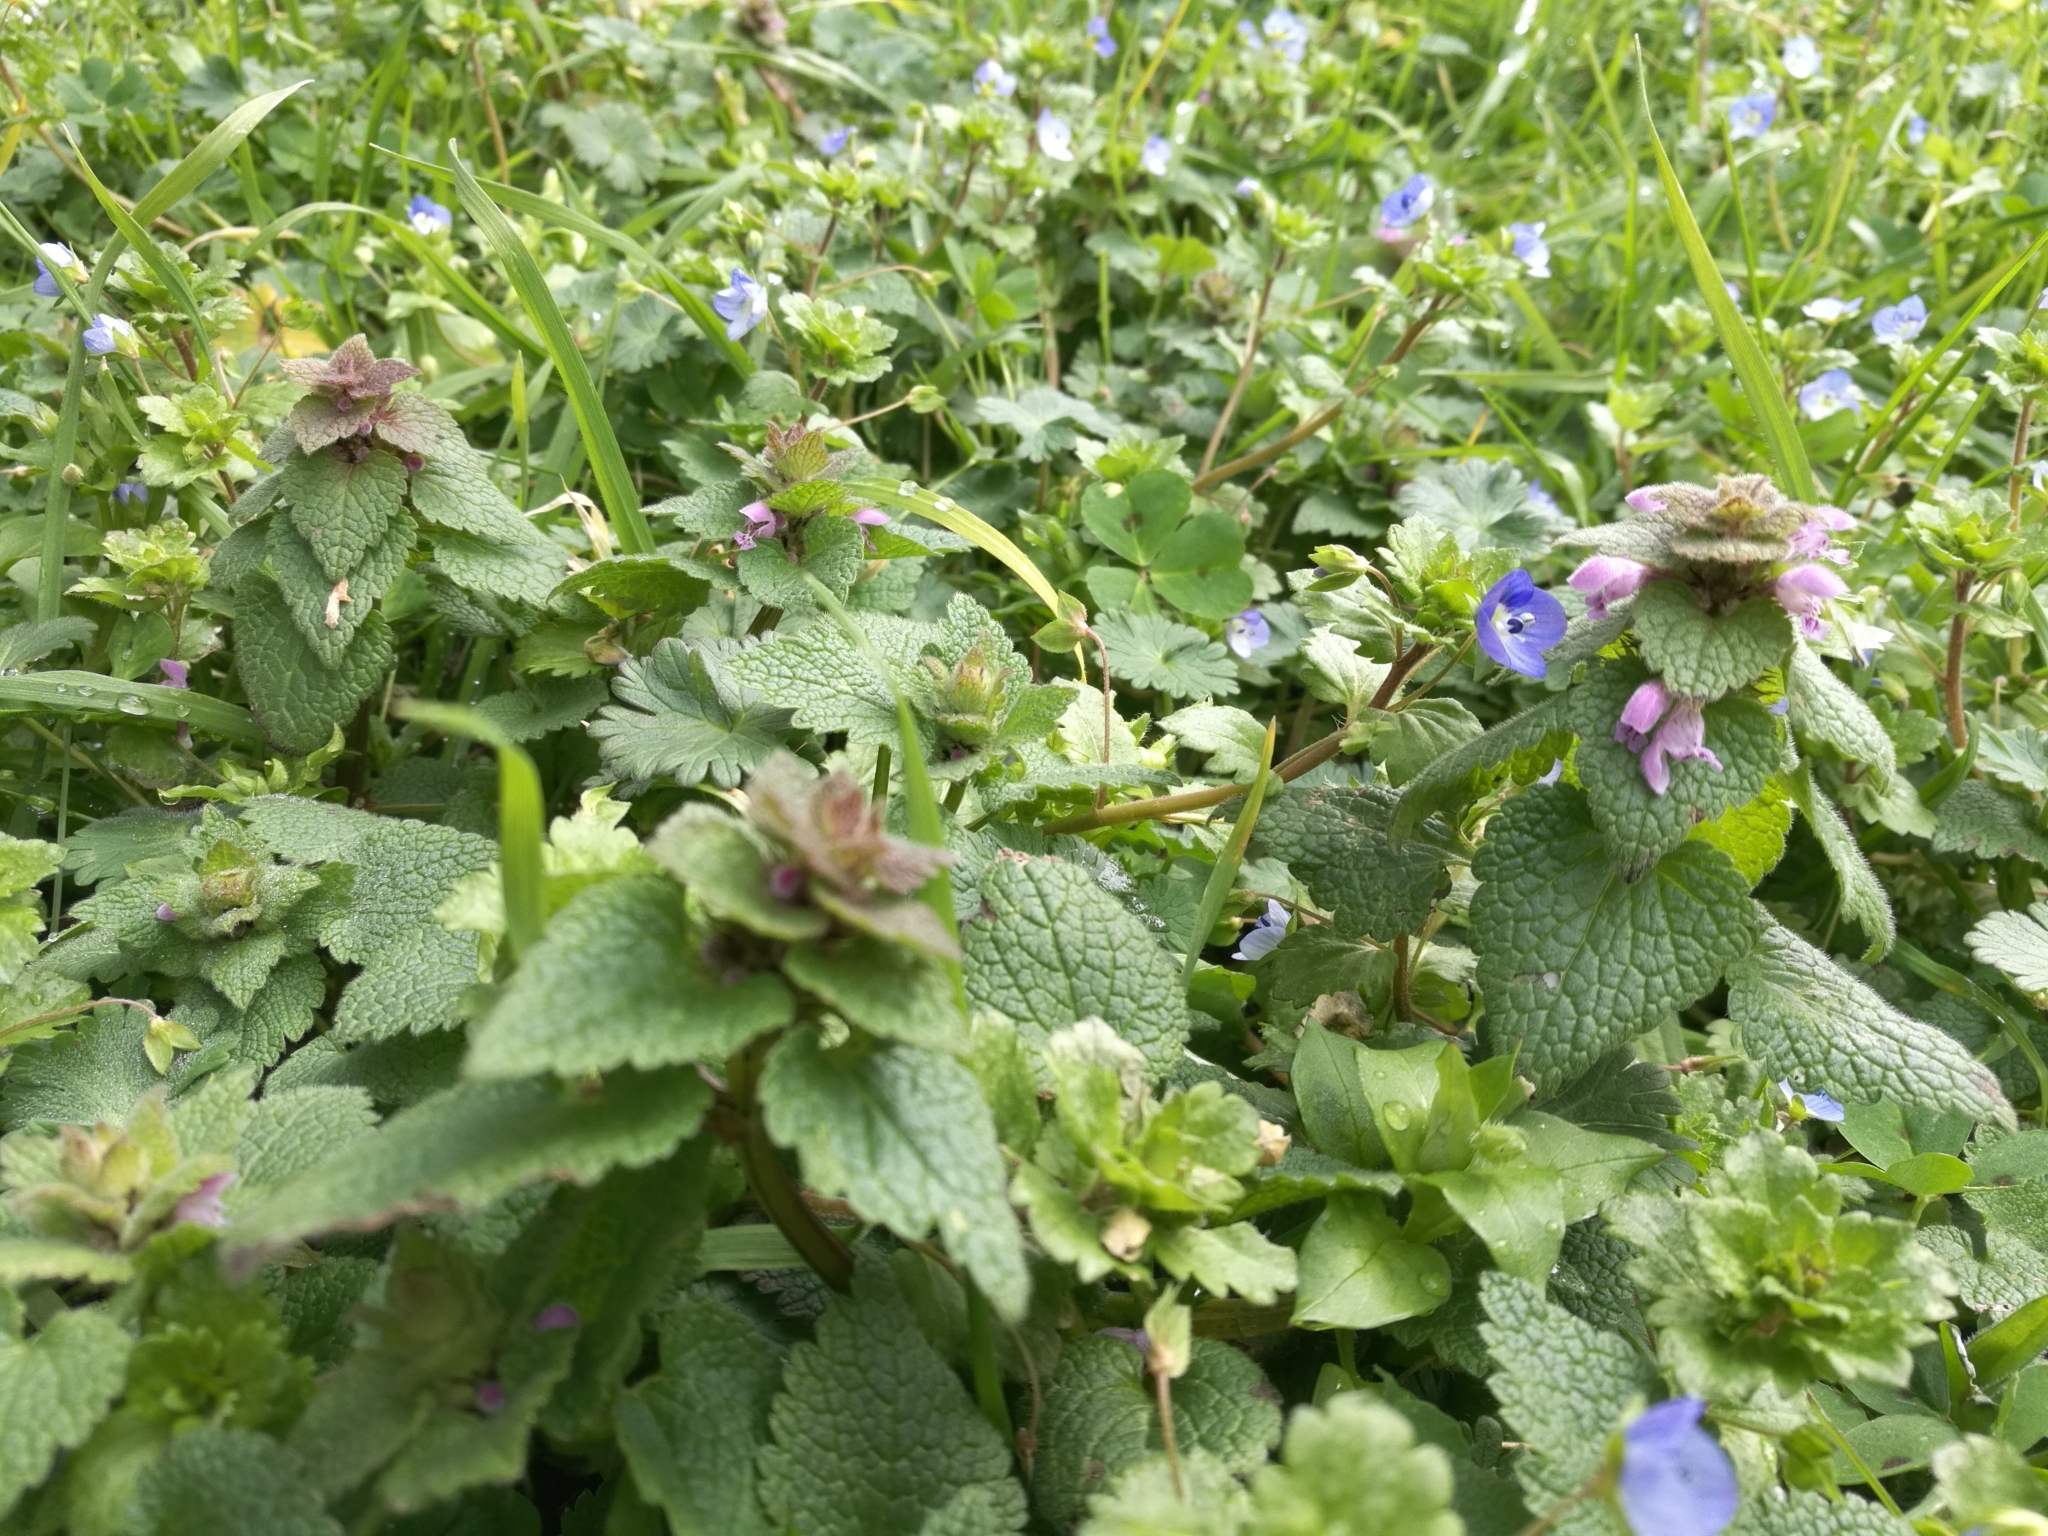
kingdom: Plantae
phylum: Tracheophyta
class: Magnoliopsida
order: Lamiales
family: Lamiaceae
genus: Lamium
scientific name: Lamium purpureum
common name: Red dead-nettle
